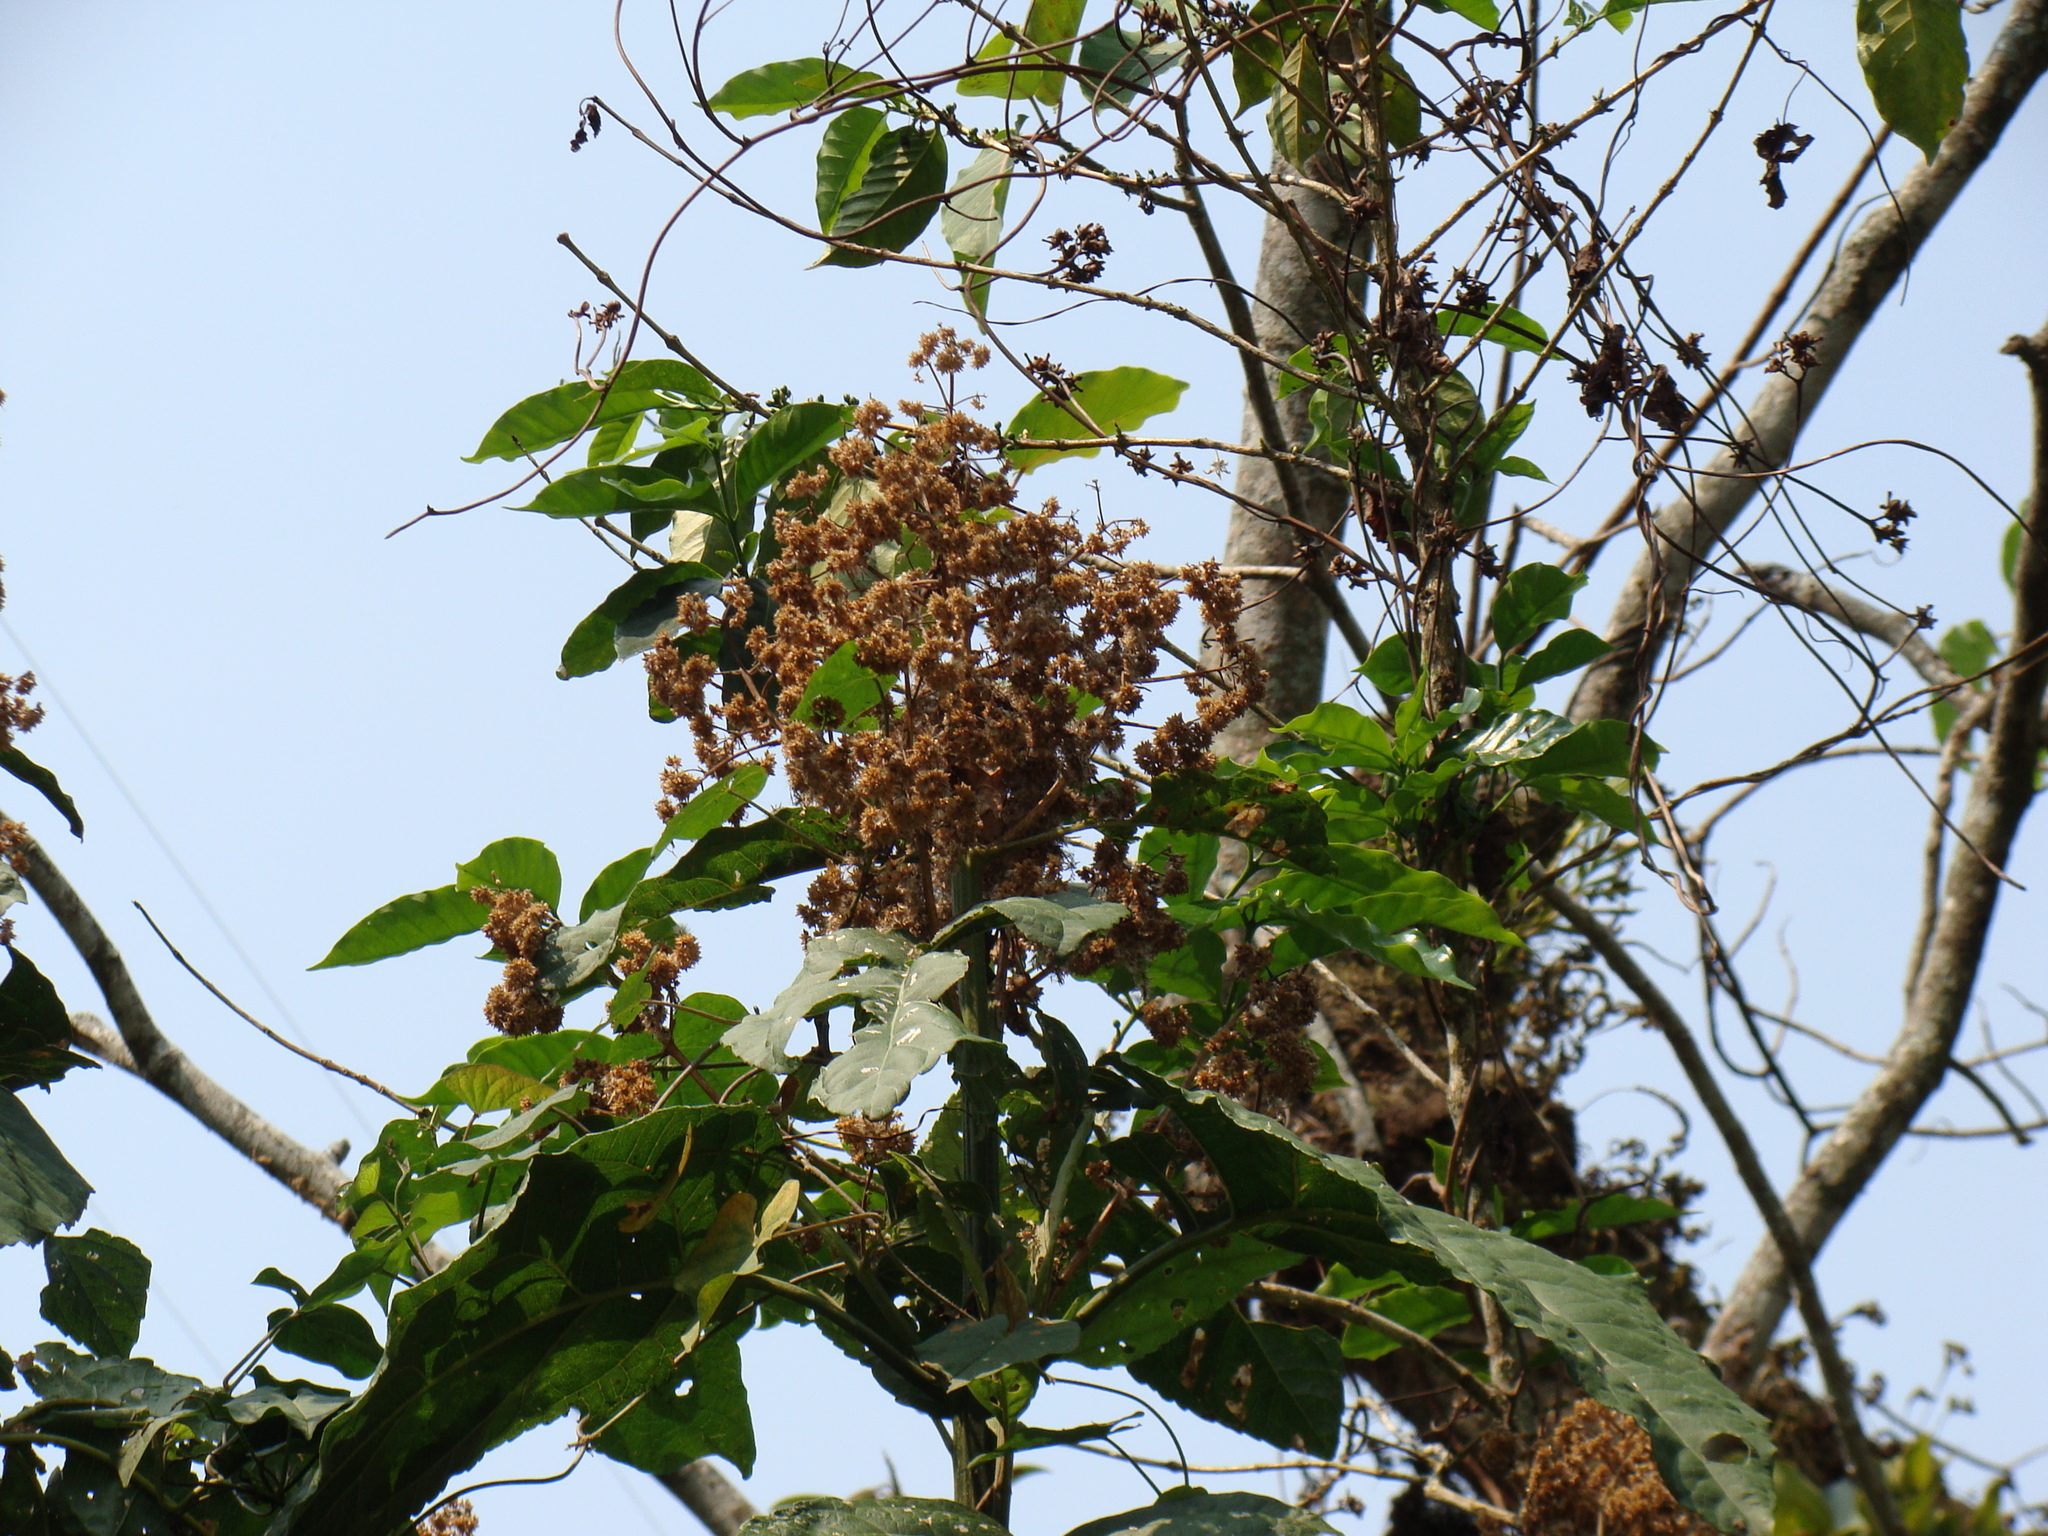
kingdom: Plantae
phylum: Tracheophyta
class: Magnoliopsida
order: Asterales
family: Asteraceae
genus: Critonia
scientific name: Critonia morifolia
